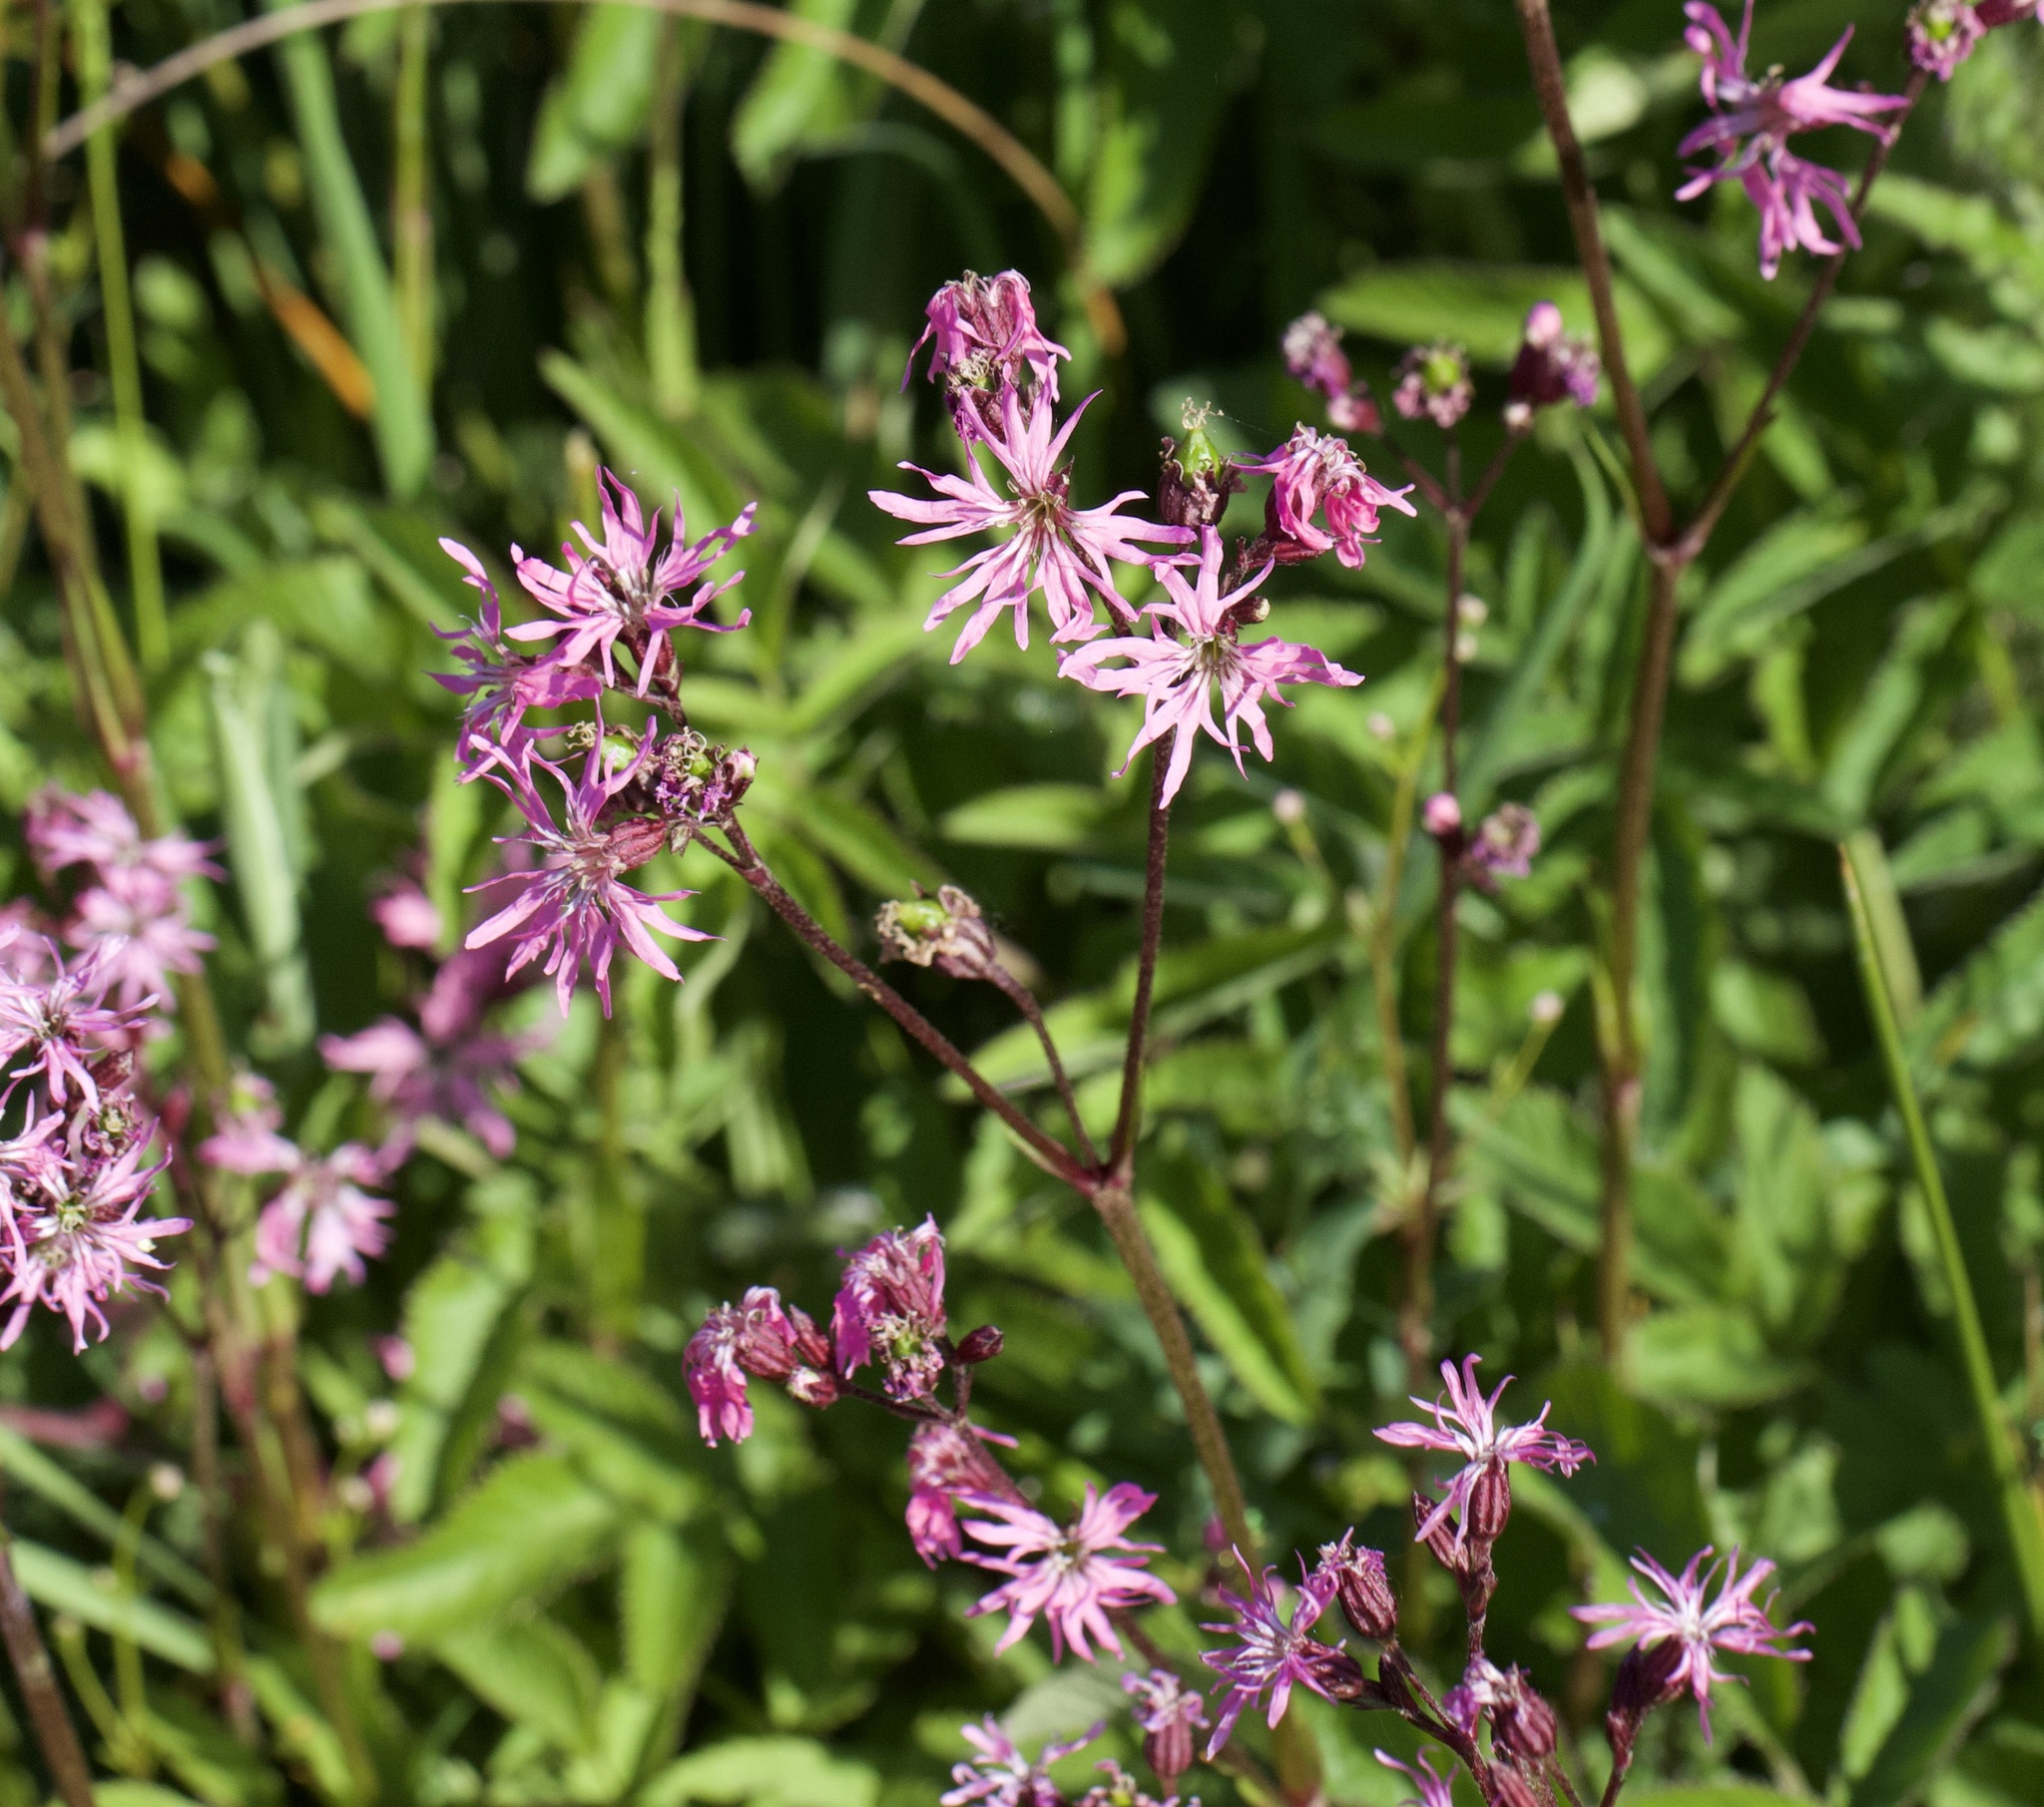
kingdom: Plantae
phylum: Tracheophyta
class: Magnoliopsida
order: Caryophyllales
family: Caryophyllaceae
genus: Silene
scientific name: Silene flos-cuculi
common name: Ragged-robin
